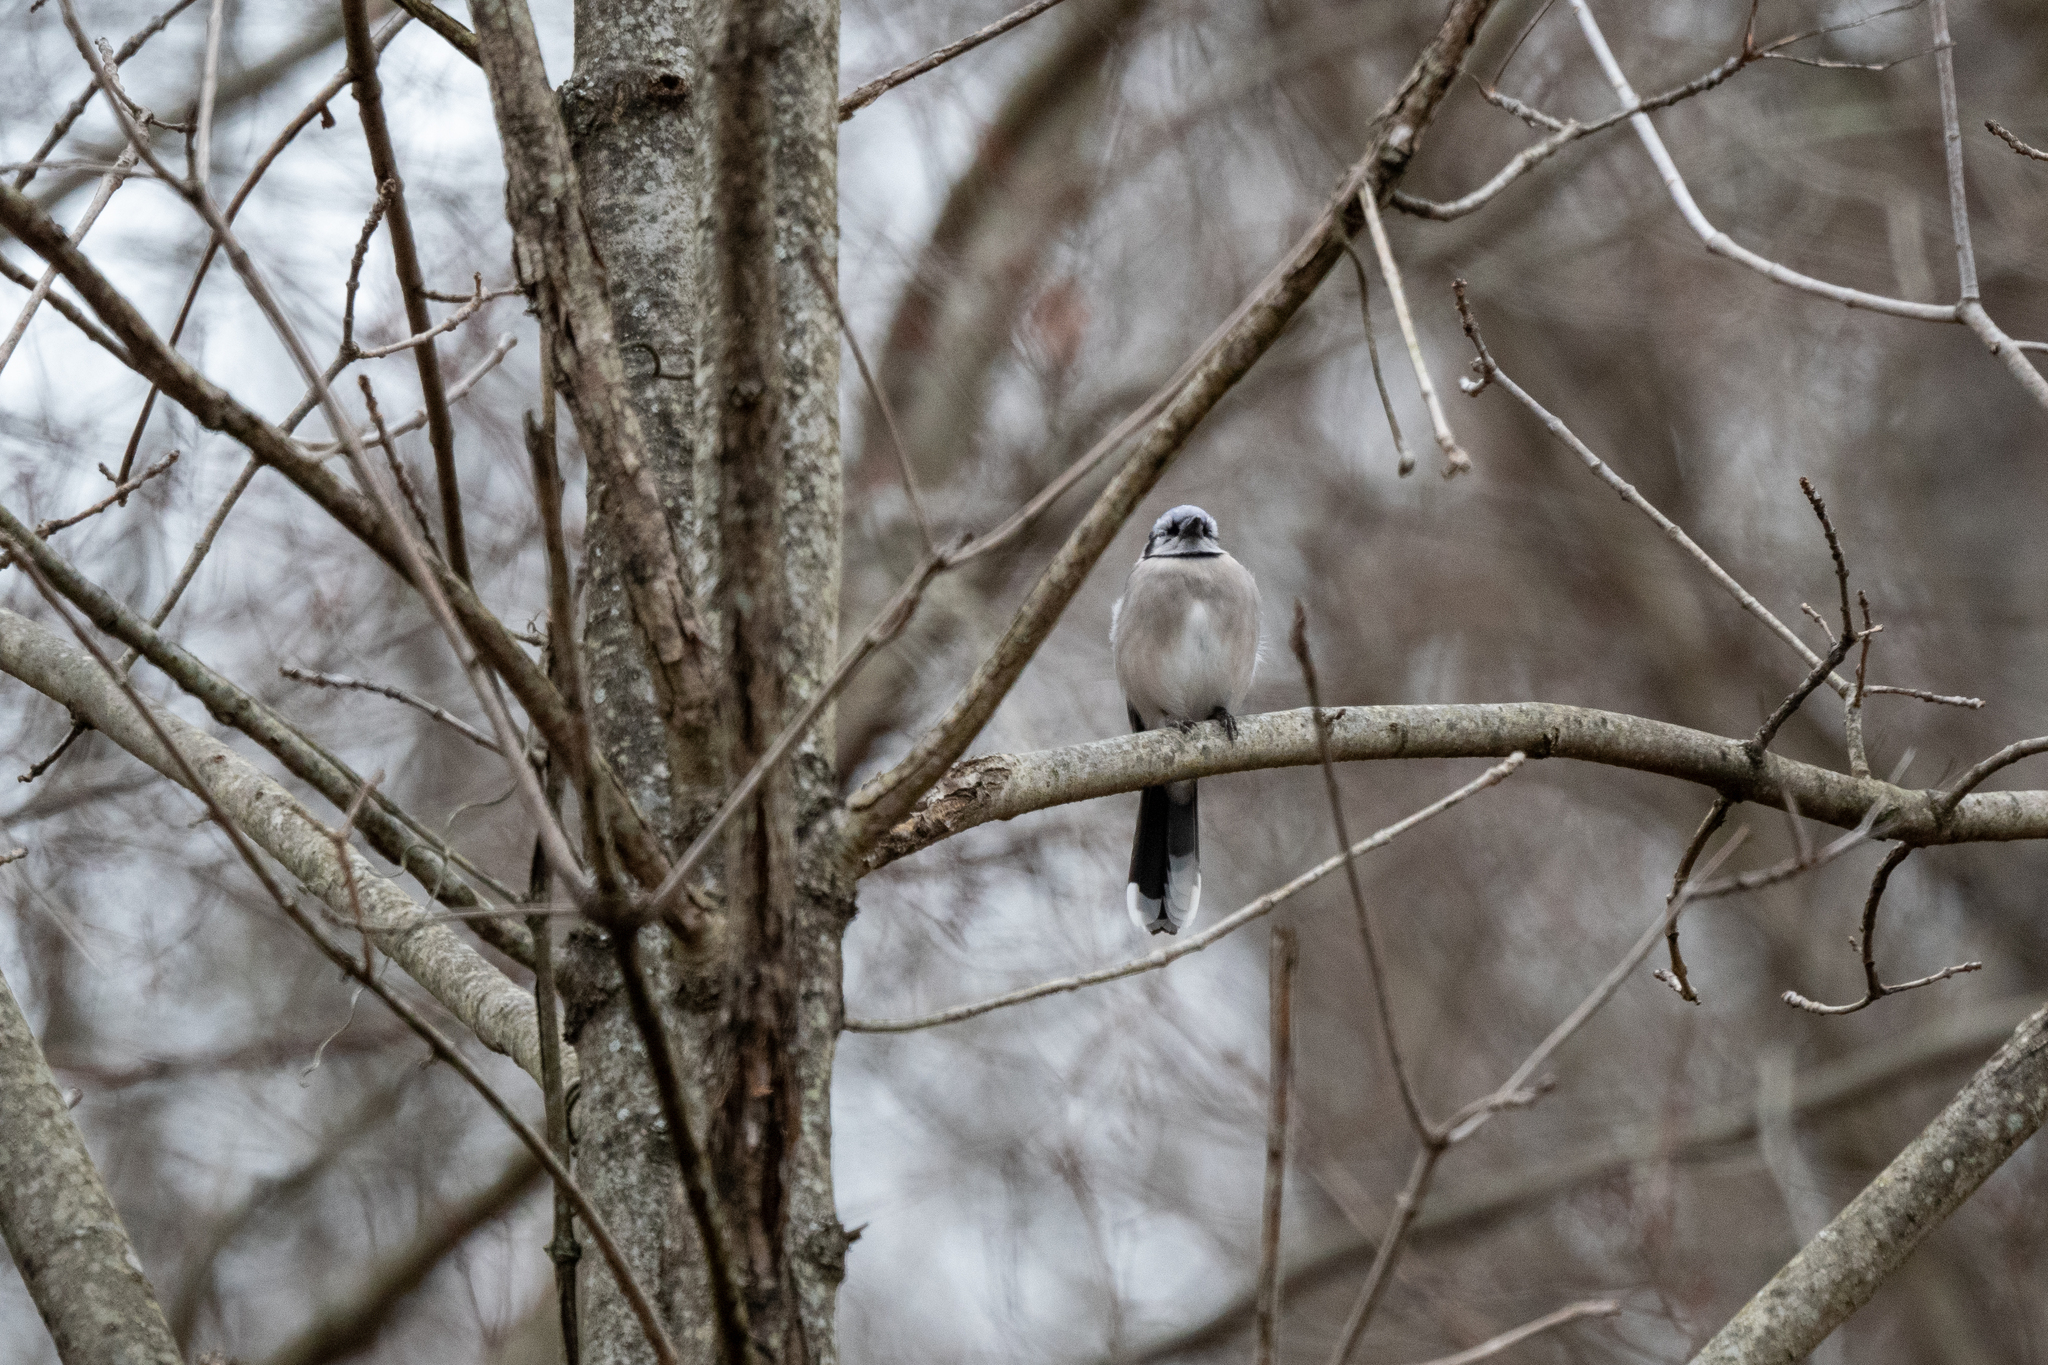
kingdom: Animalia
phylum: Chordata
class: Aves
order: Passeriformes
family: Corvidae
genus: Cyanocitta
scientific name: Cyanocitta cristata
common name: Blue jay
